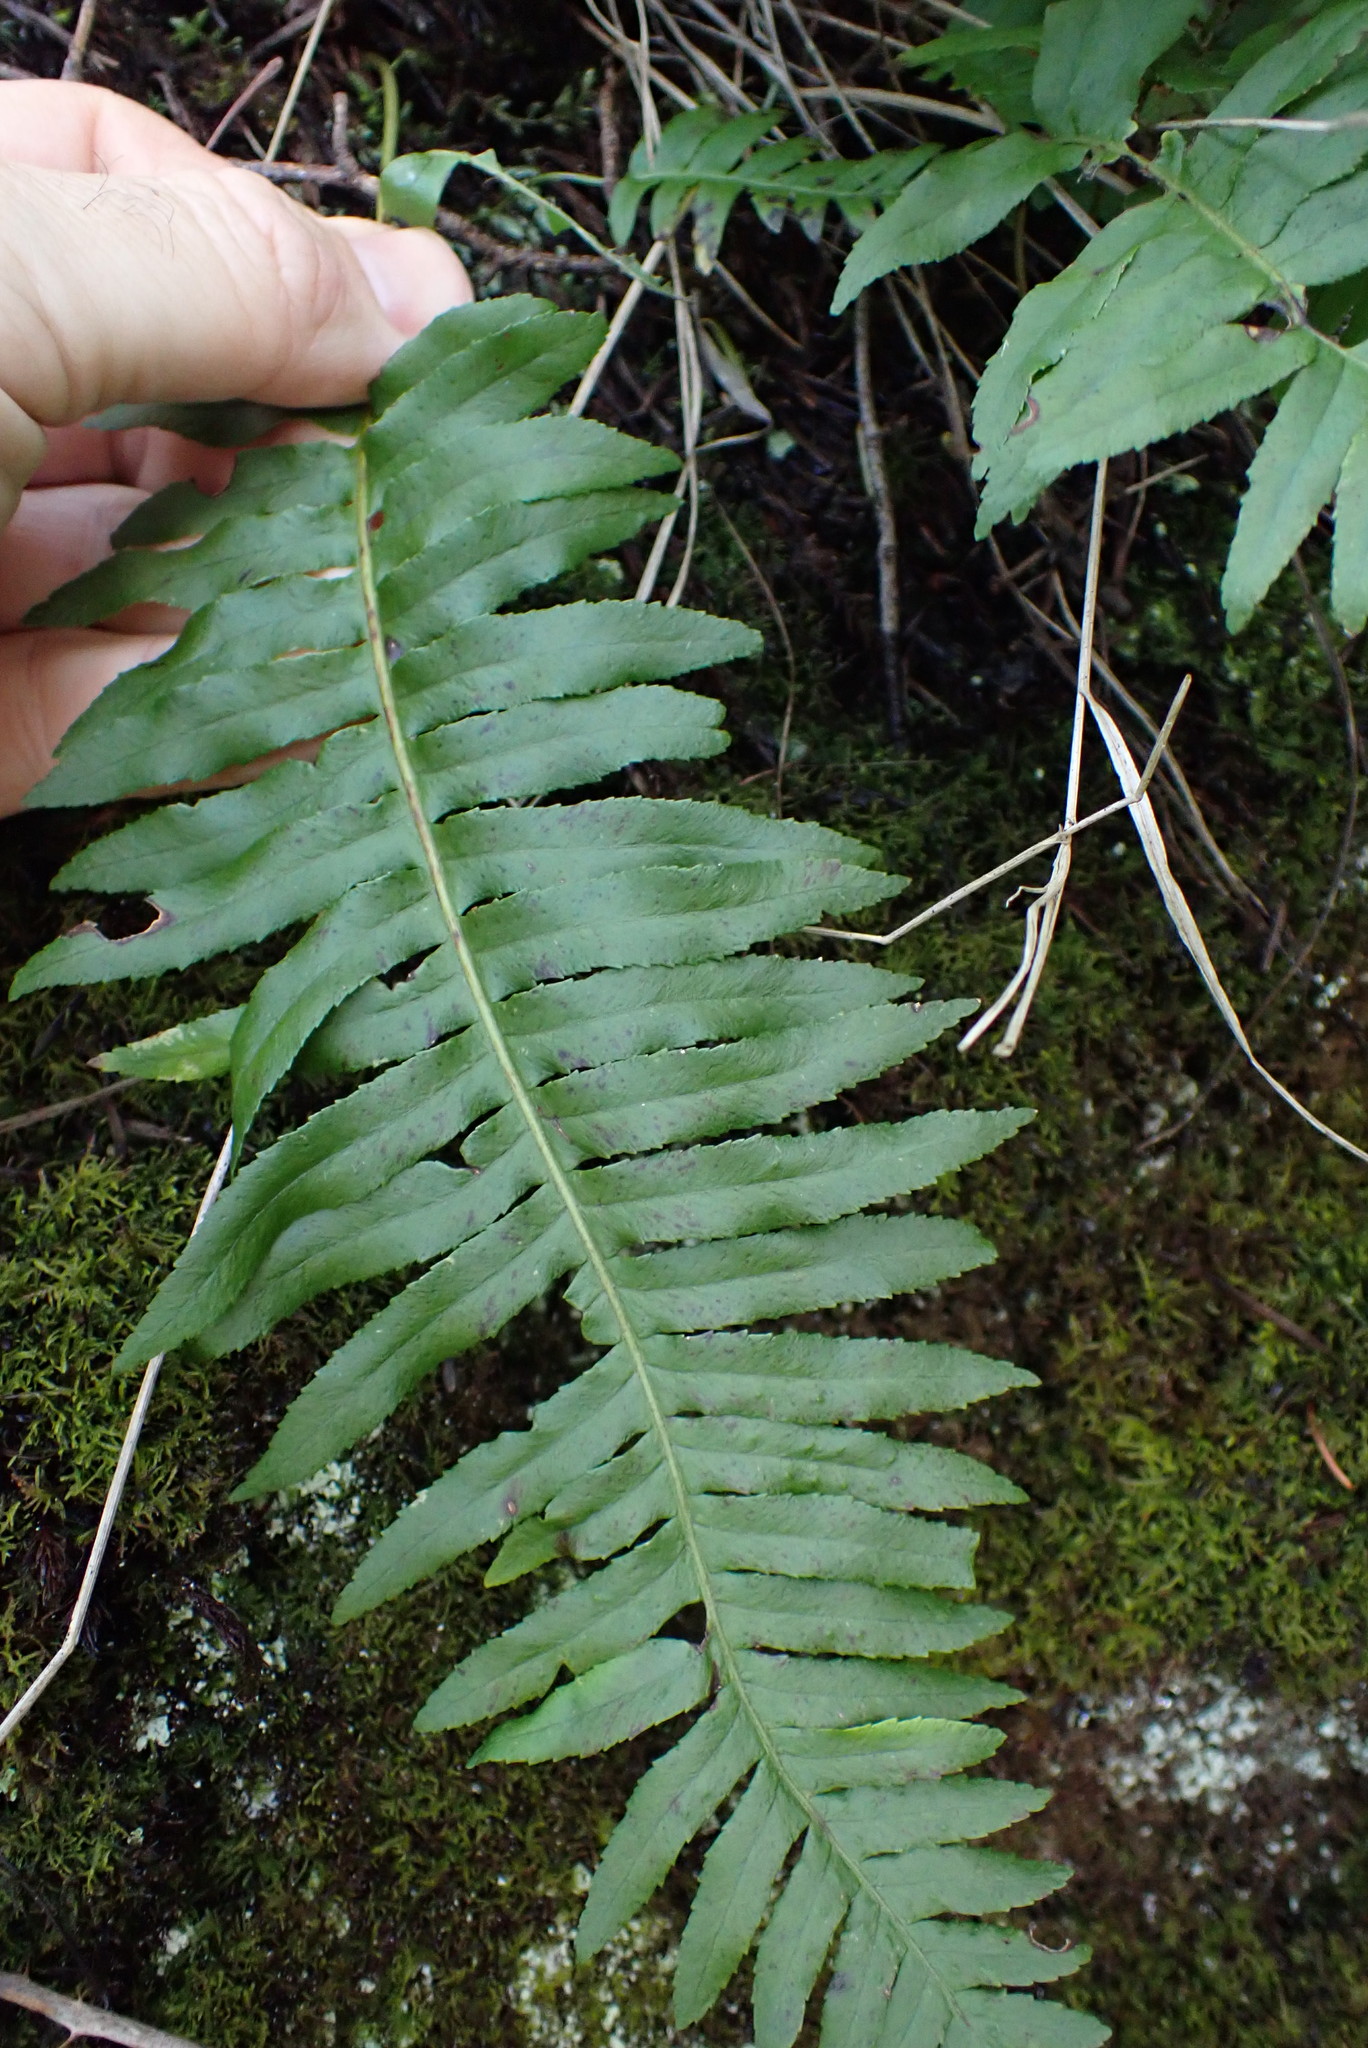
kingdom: Plantae
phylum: Tracheophyta
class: Polypodiopsida
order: Polypodiales
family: Polypodiaceae
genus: Polypodium
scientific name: Polypodium glycyrrhiza
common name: Licorice fern
